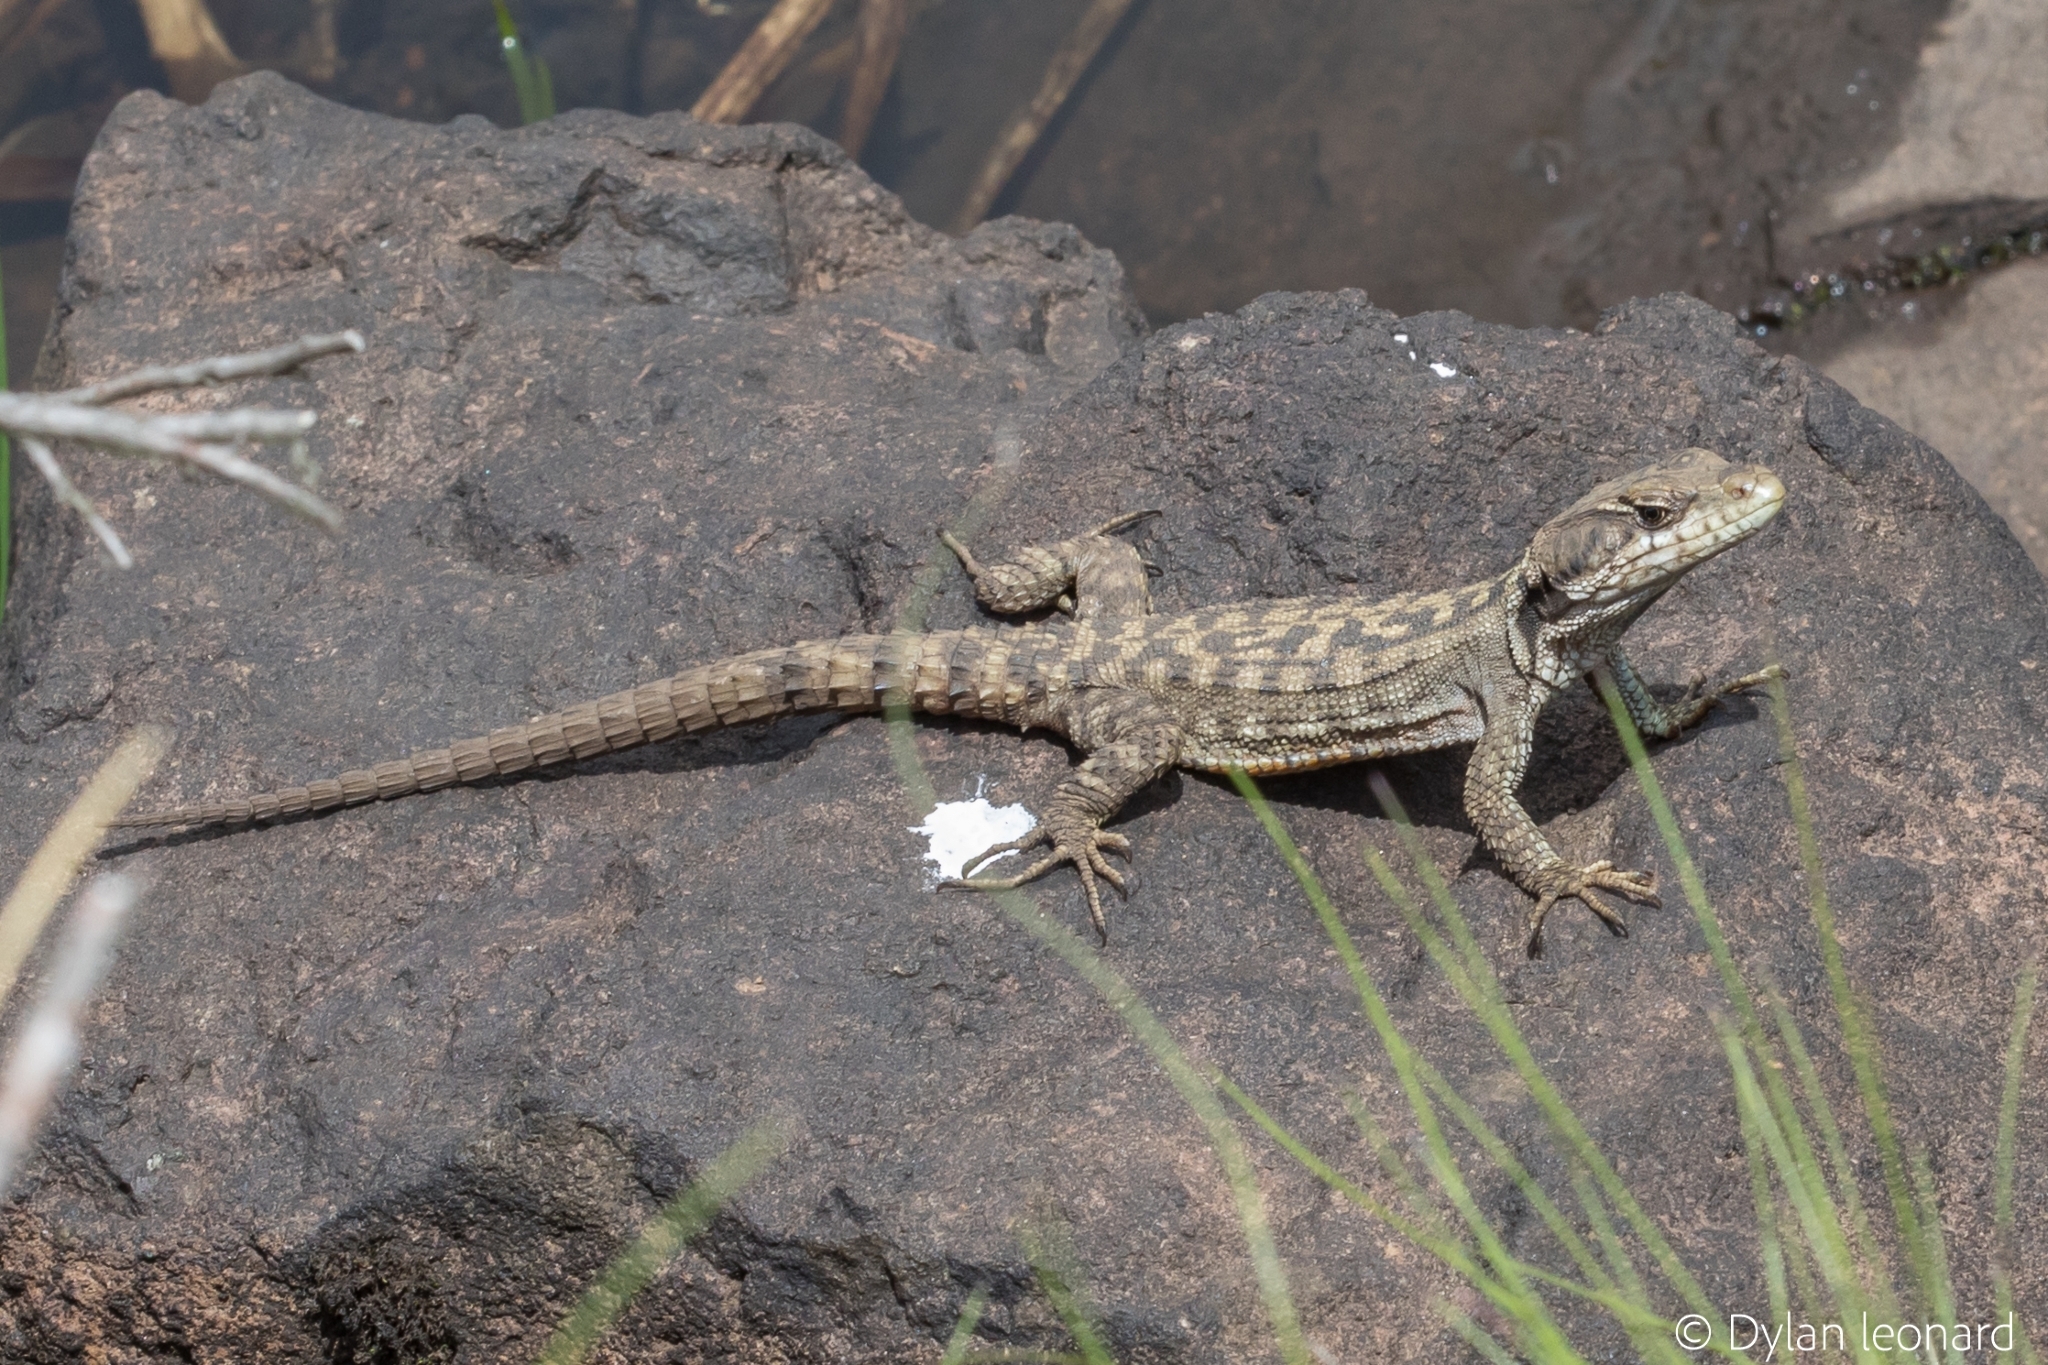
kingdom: Animalia
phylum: Chordata
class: Squamata
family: Cordylidae
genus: Pseudocordylus
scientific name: Pseudocordylus subviridis
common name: Drakensberg crag lizard
